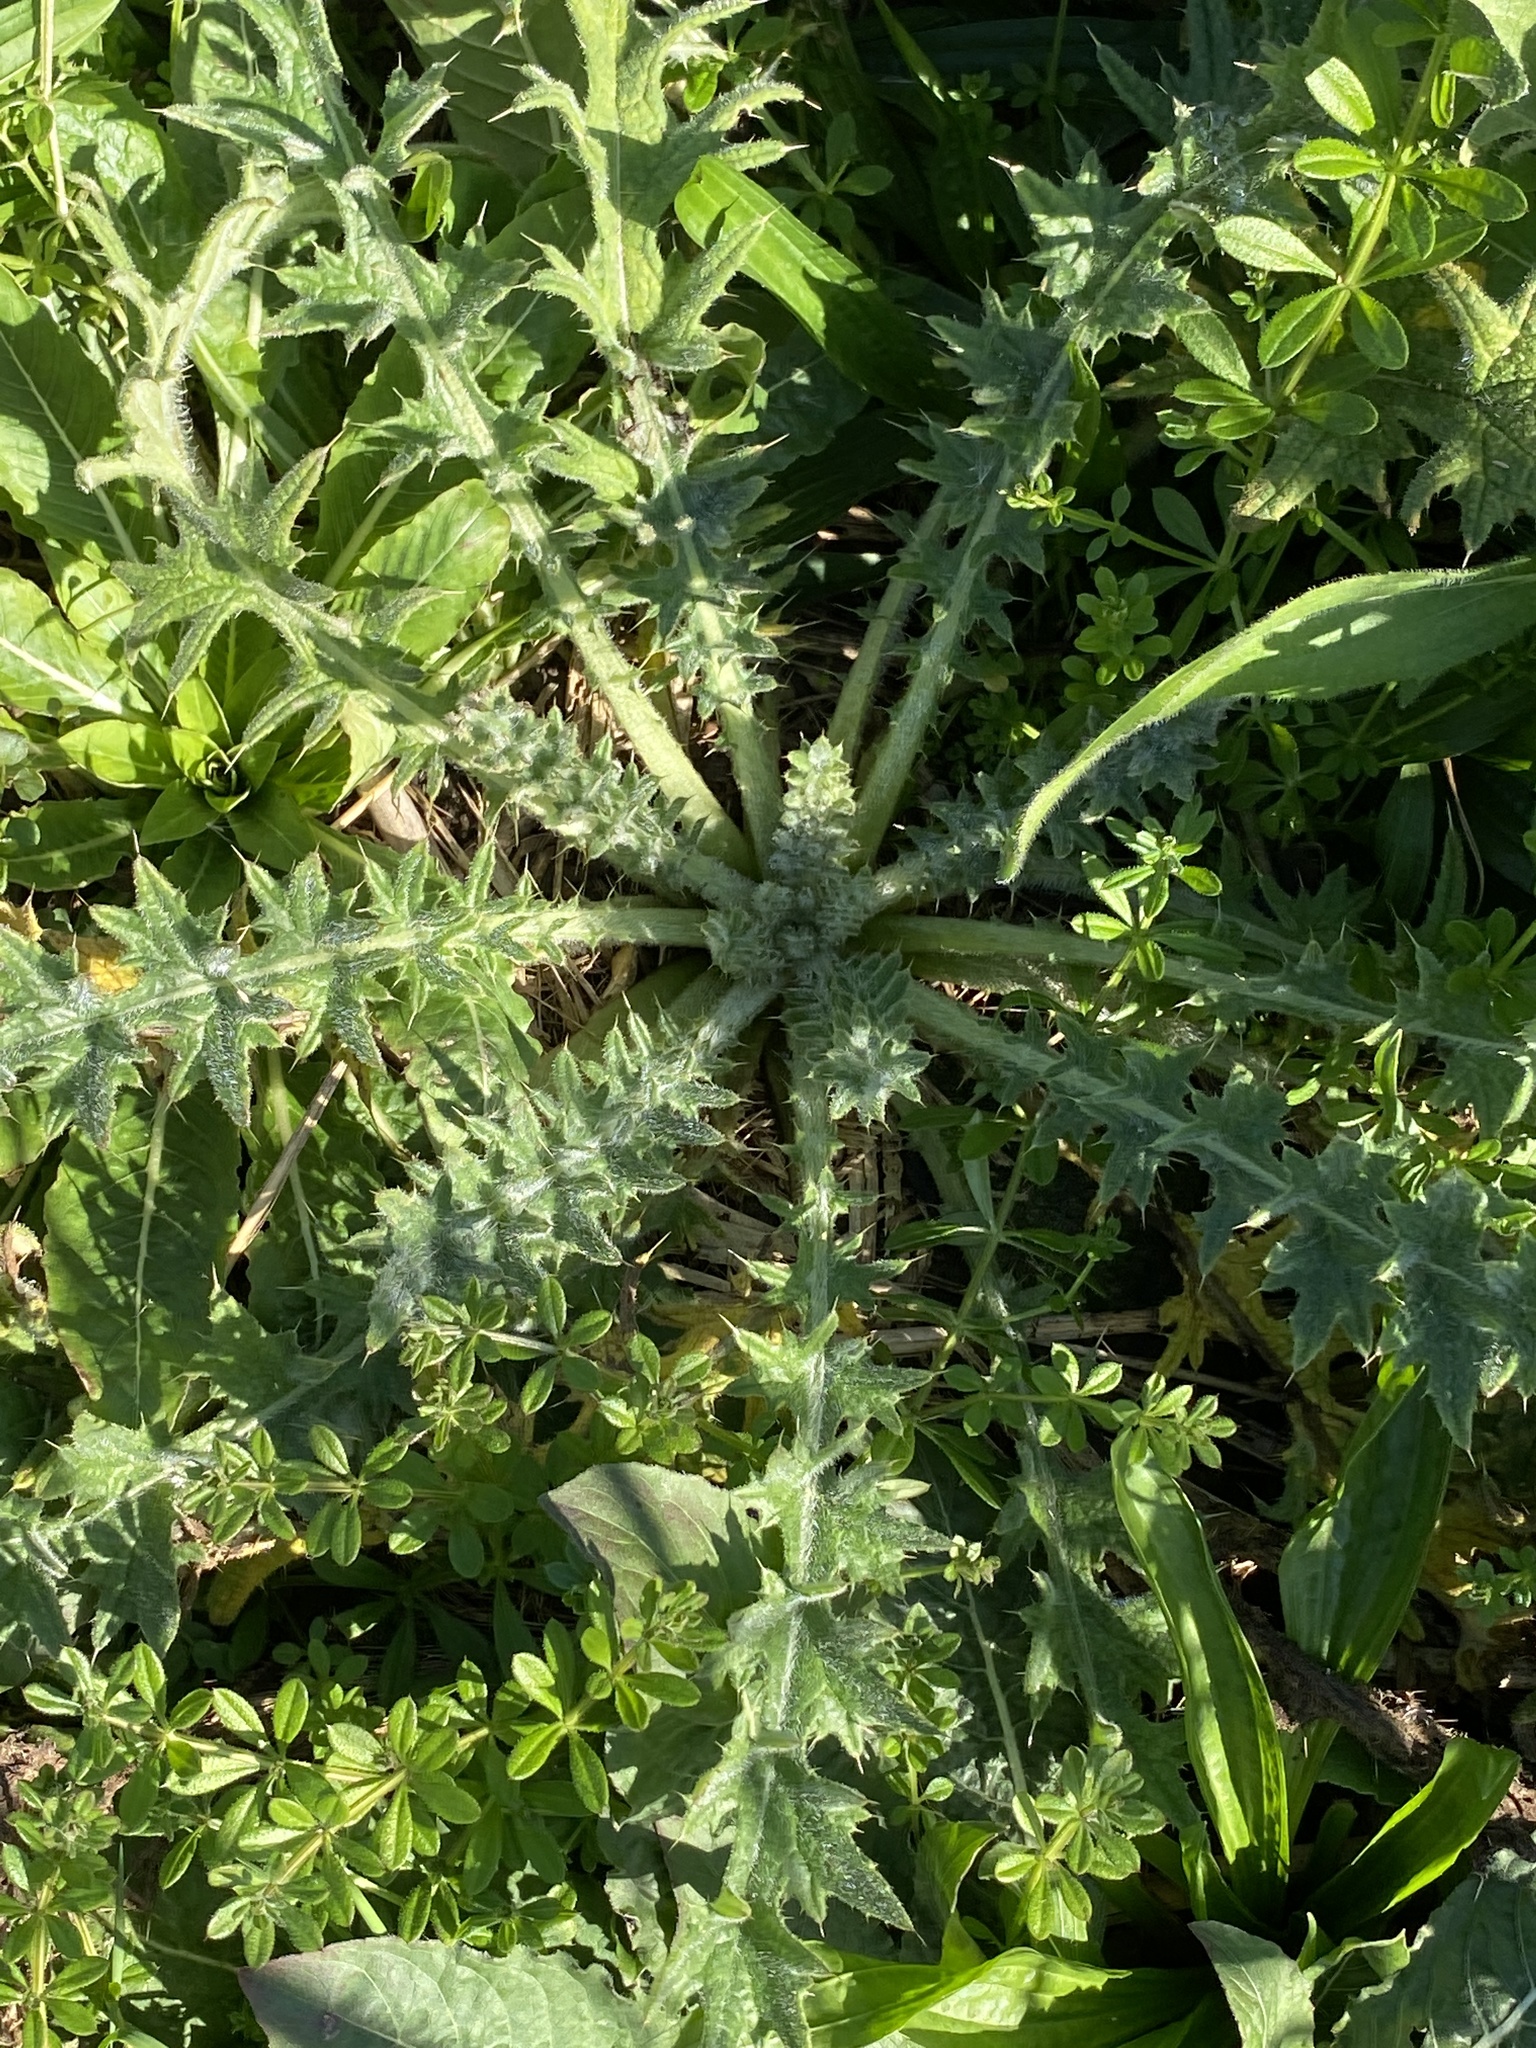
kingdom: Plantae
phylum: Tracheophyta
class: Magnoliopsida
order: Asterales
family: Asteraceae
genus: Cirsium
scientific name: Cirsium vulgare
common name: Bull thistle
